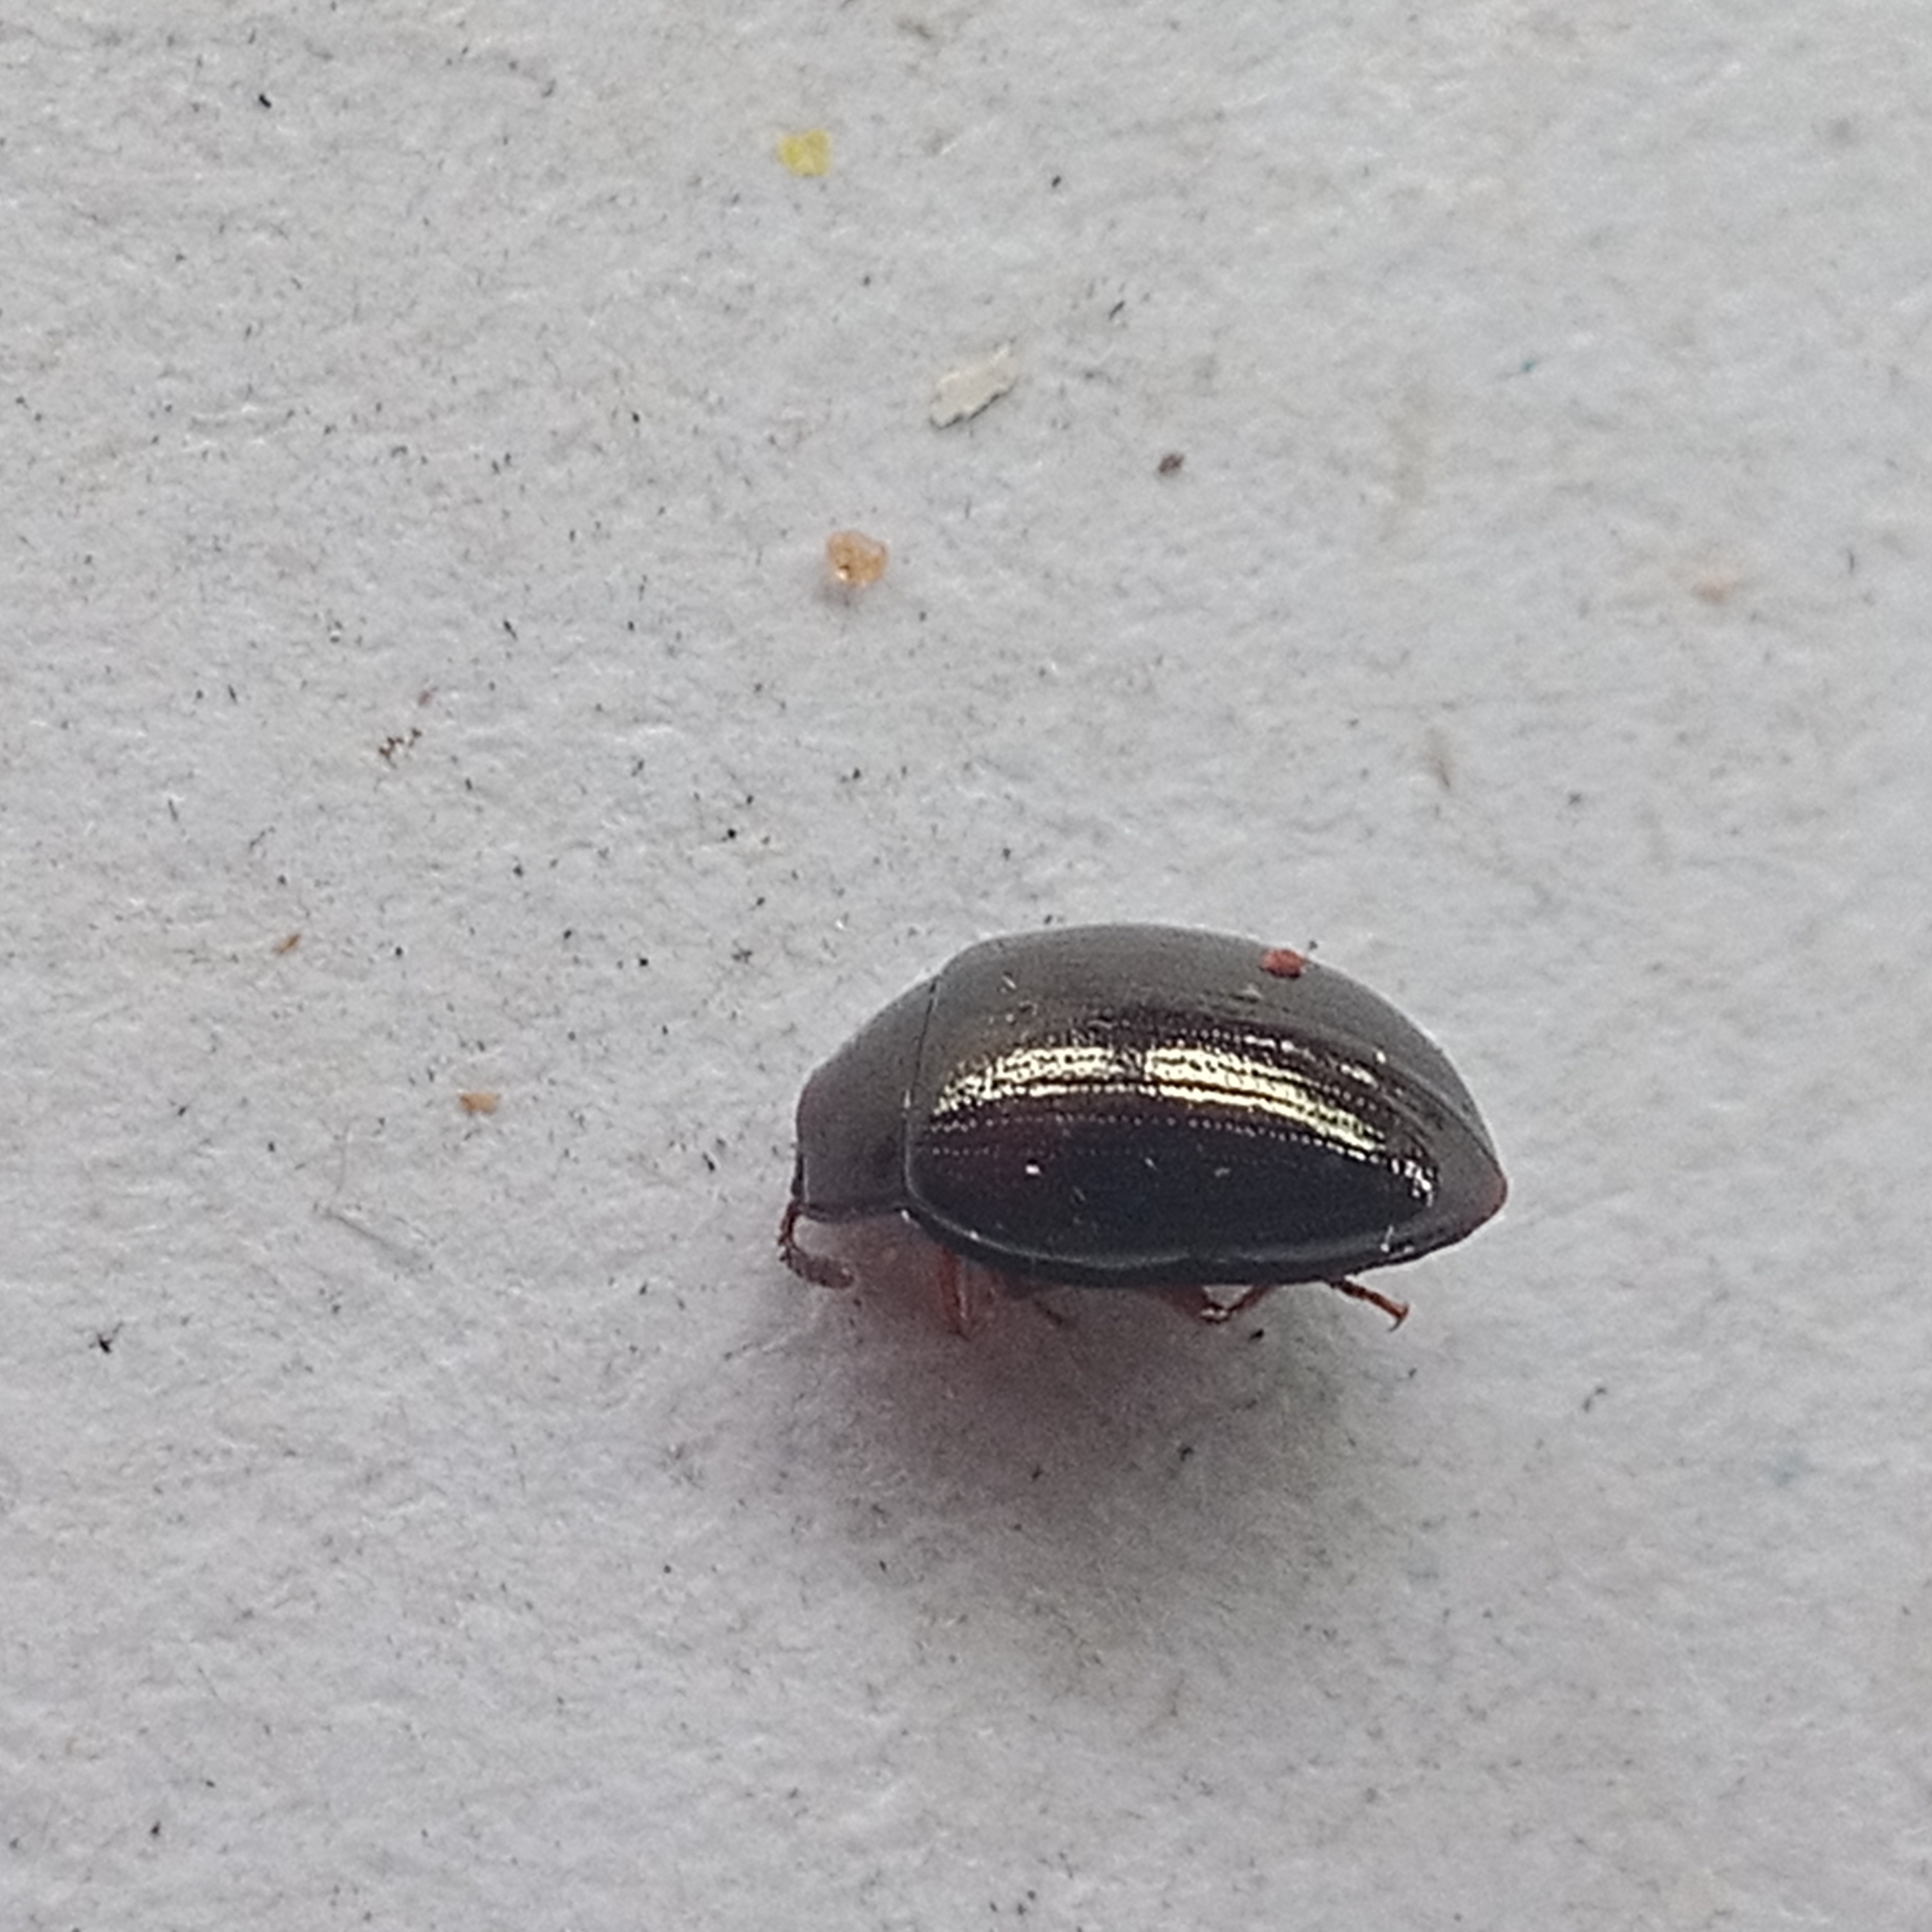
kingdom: Animalia
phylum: Arthropoda
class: Insecta
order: Coleoptera
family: Tenebrionidae
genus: Blapstinus
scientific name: Blapstinus metallicus
